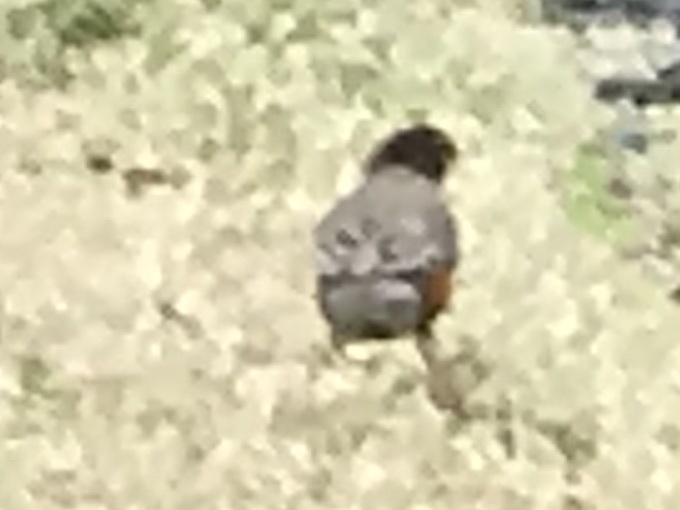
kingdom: Animalia
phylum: Chordata
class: Aves
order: Passeriformes
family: Turdidae
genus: Turdus
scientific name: Turdus migratorius
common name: American robin
